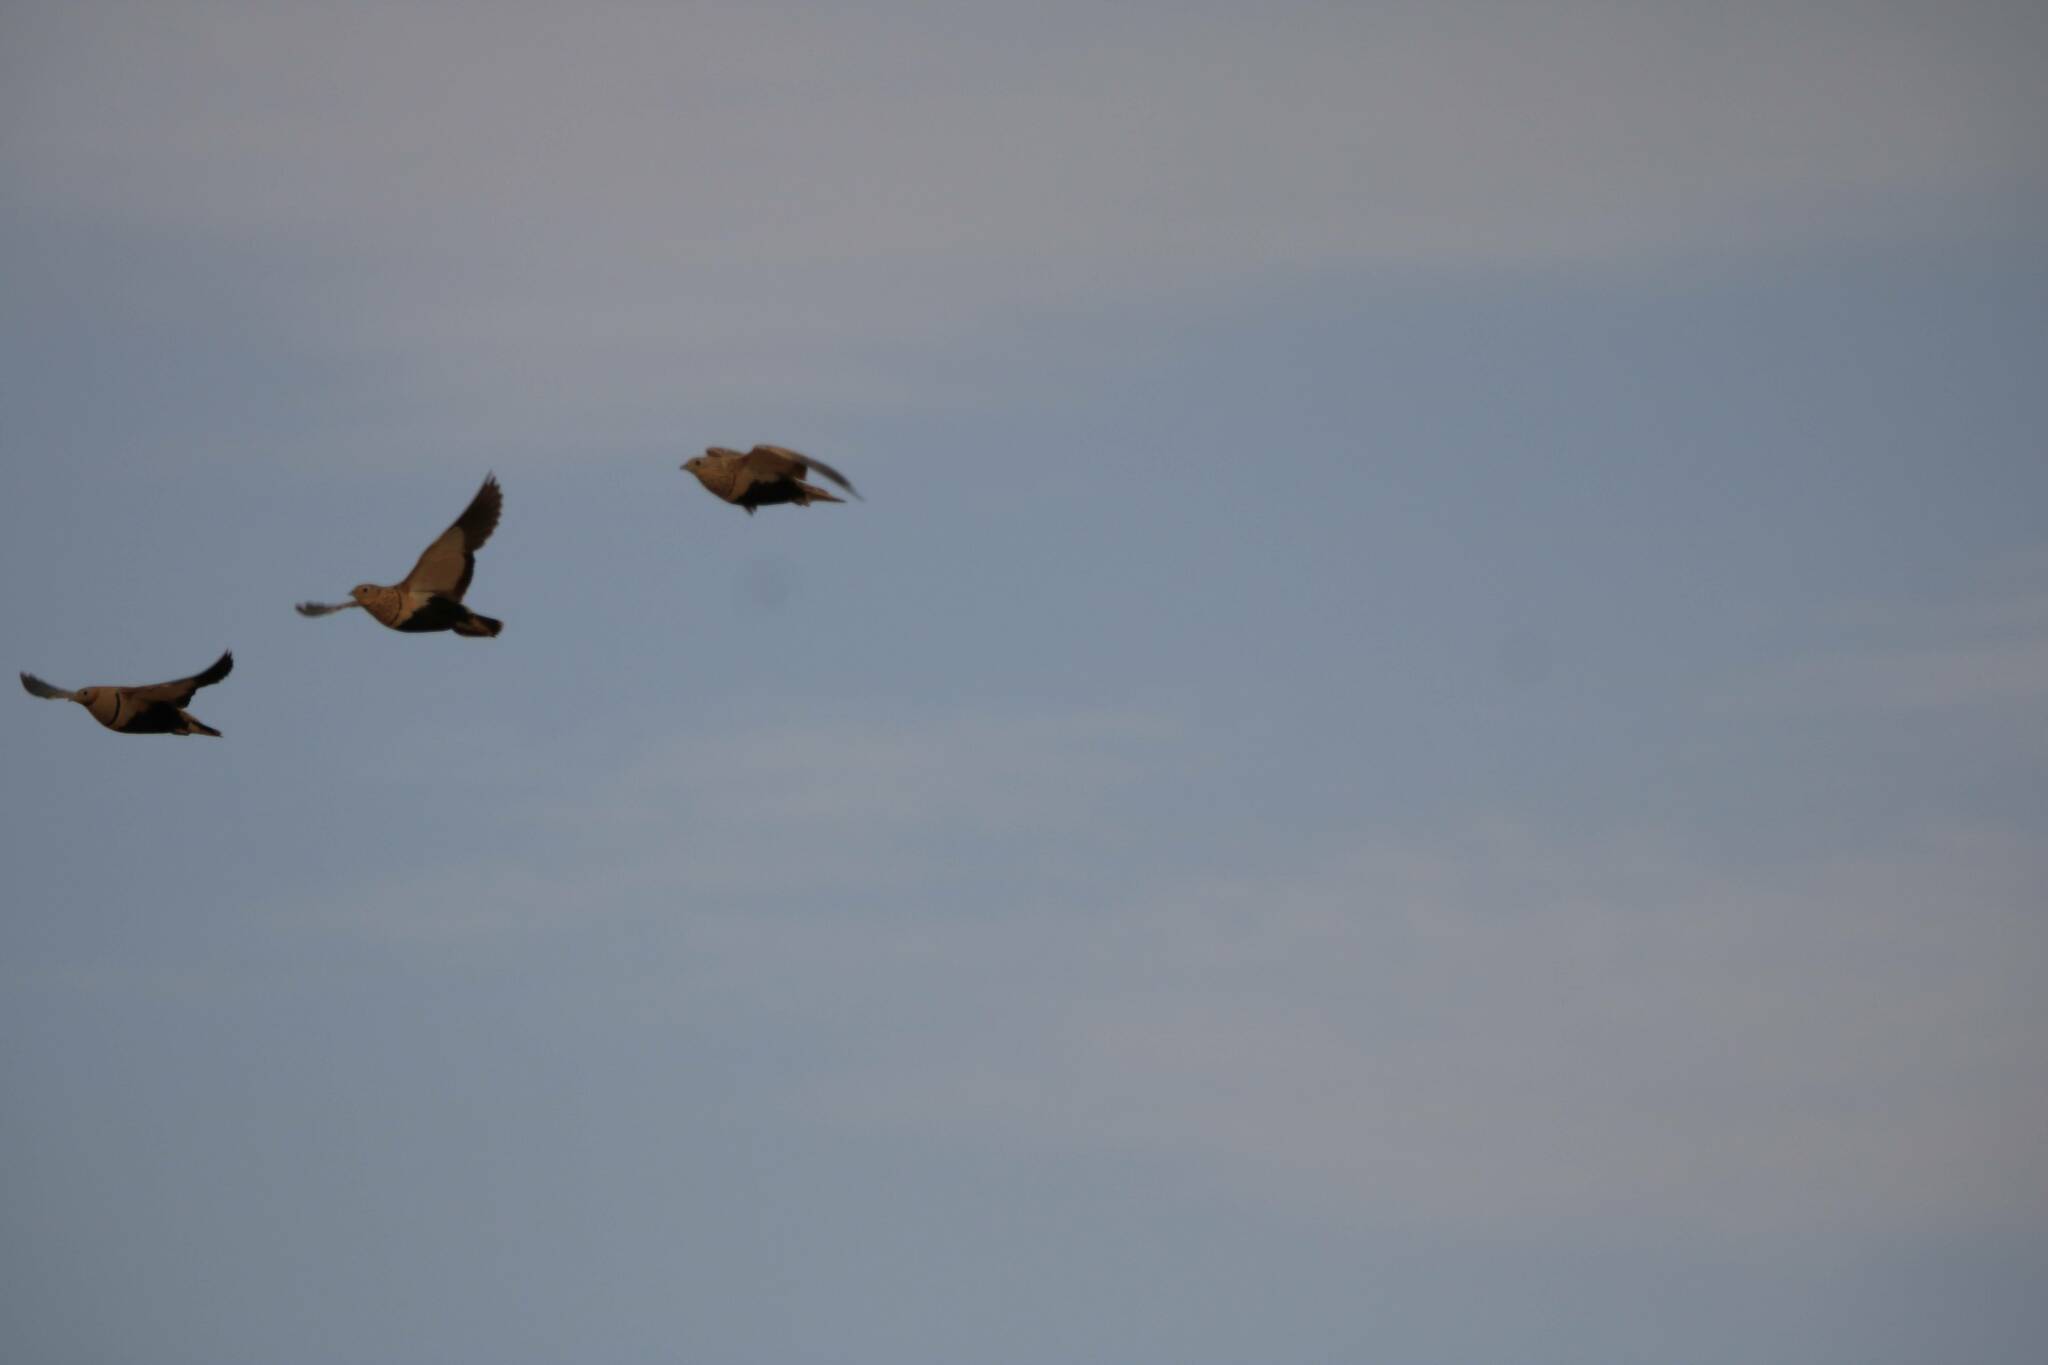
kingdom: Animalia
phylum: Chordata
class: Aves
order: Pteroclidiformes
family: Pteroclididae
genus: Pterocles
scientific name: Pterocles orientalis
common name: Black-bellied sandgrouse
